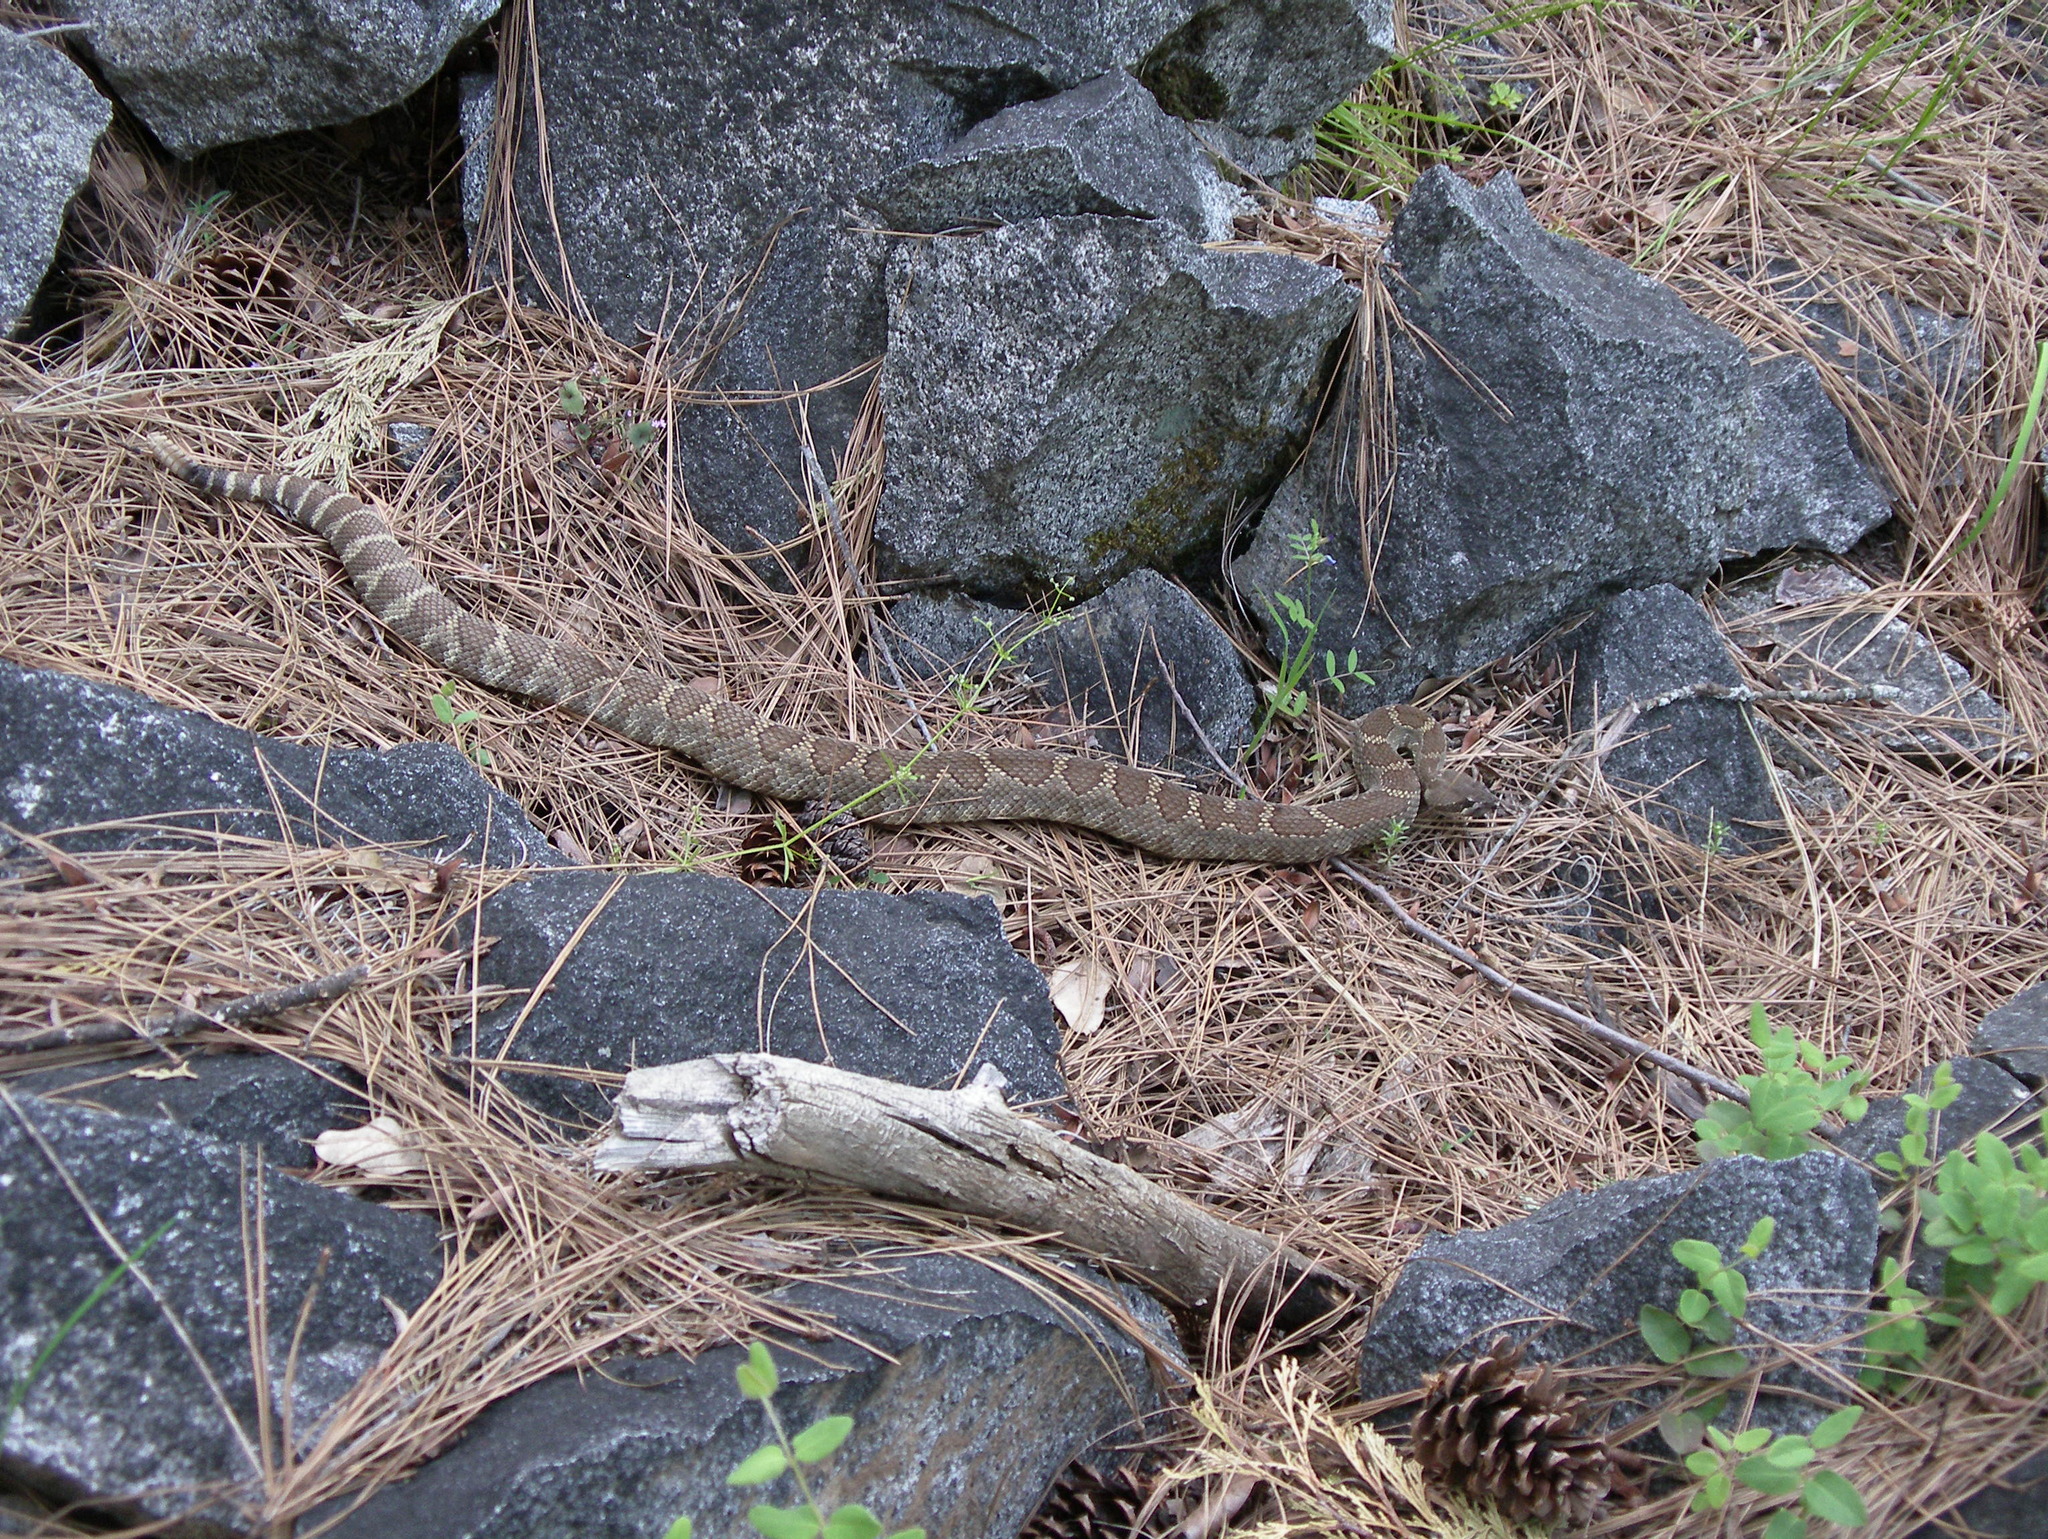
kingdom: Animalia
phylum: Chordata
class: Squamata
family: Viperidae
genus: Crotalus
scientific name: Crotalus oreganus
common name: Abyssus
